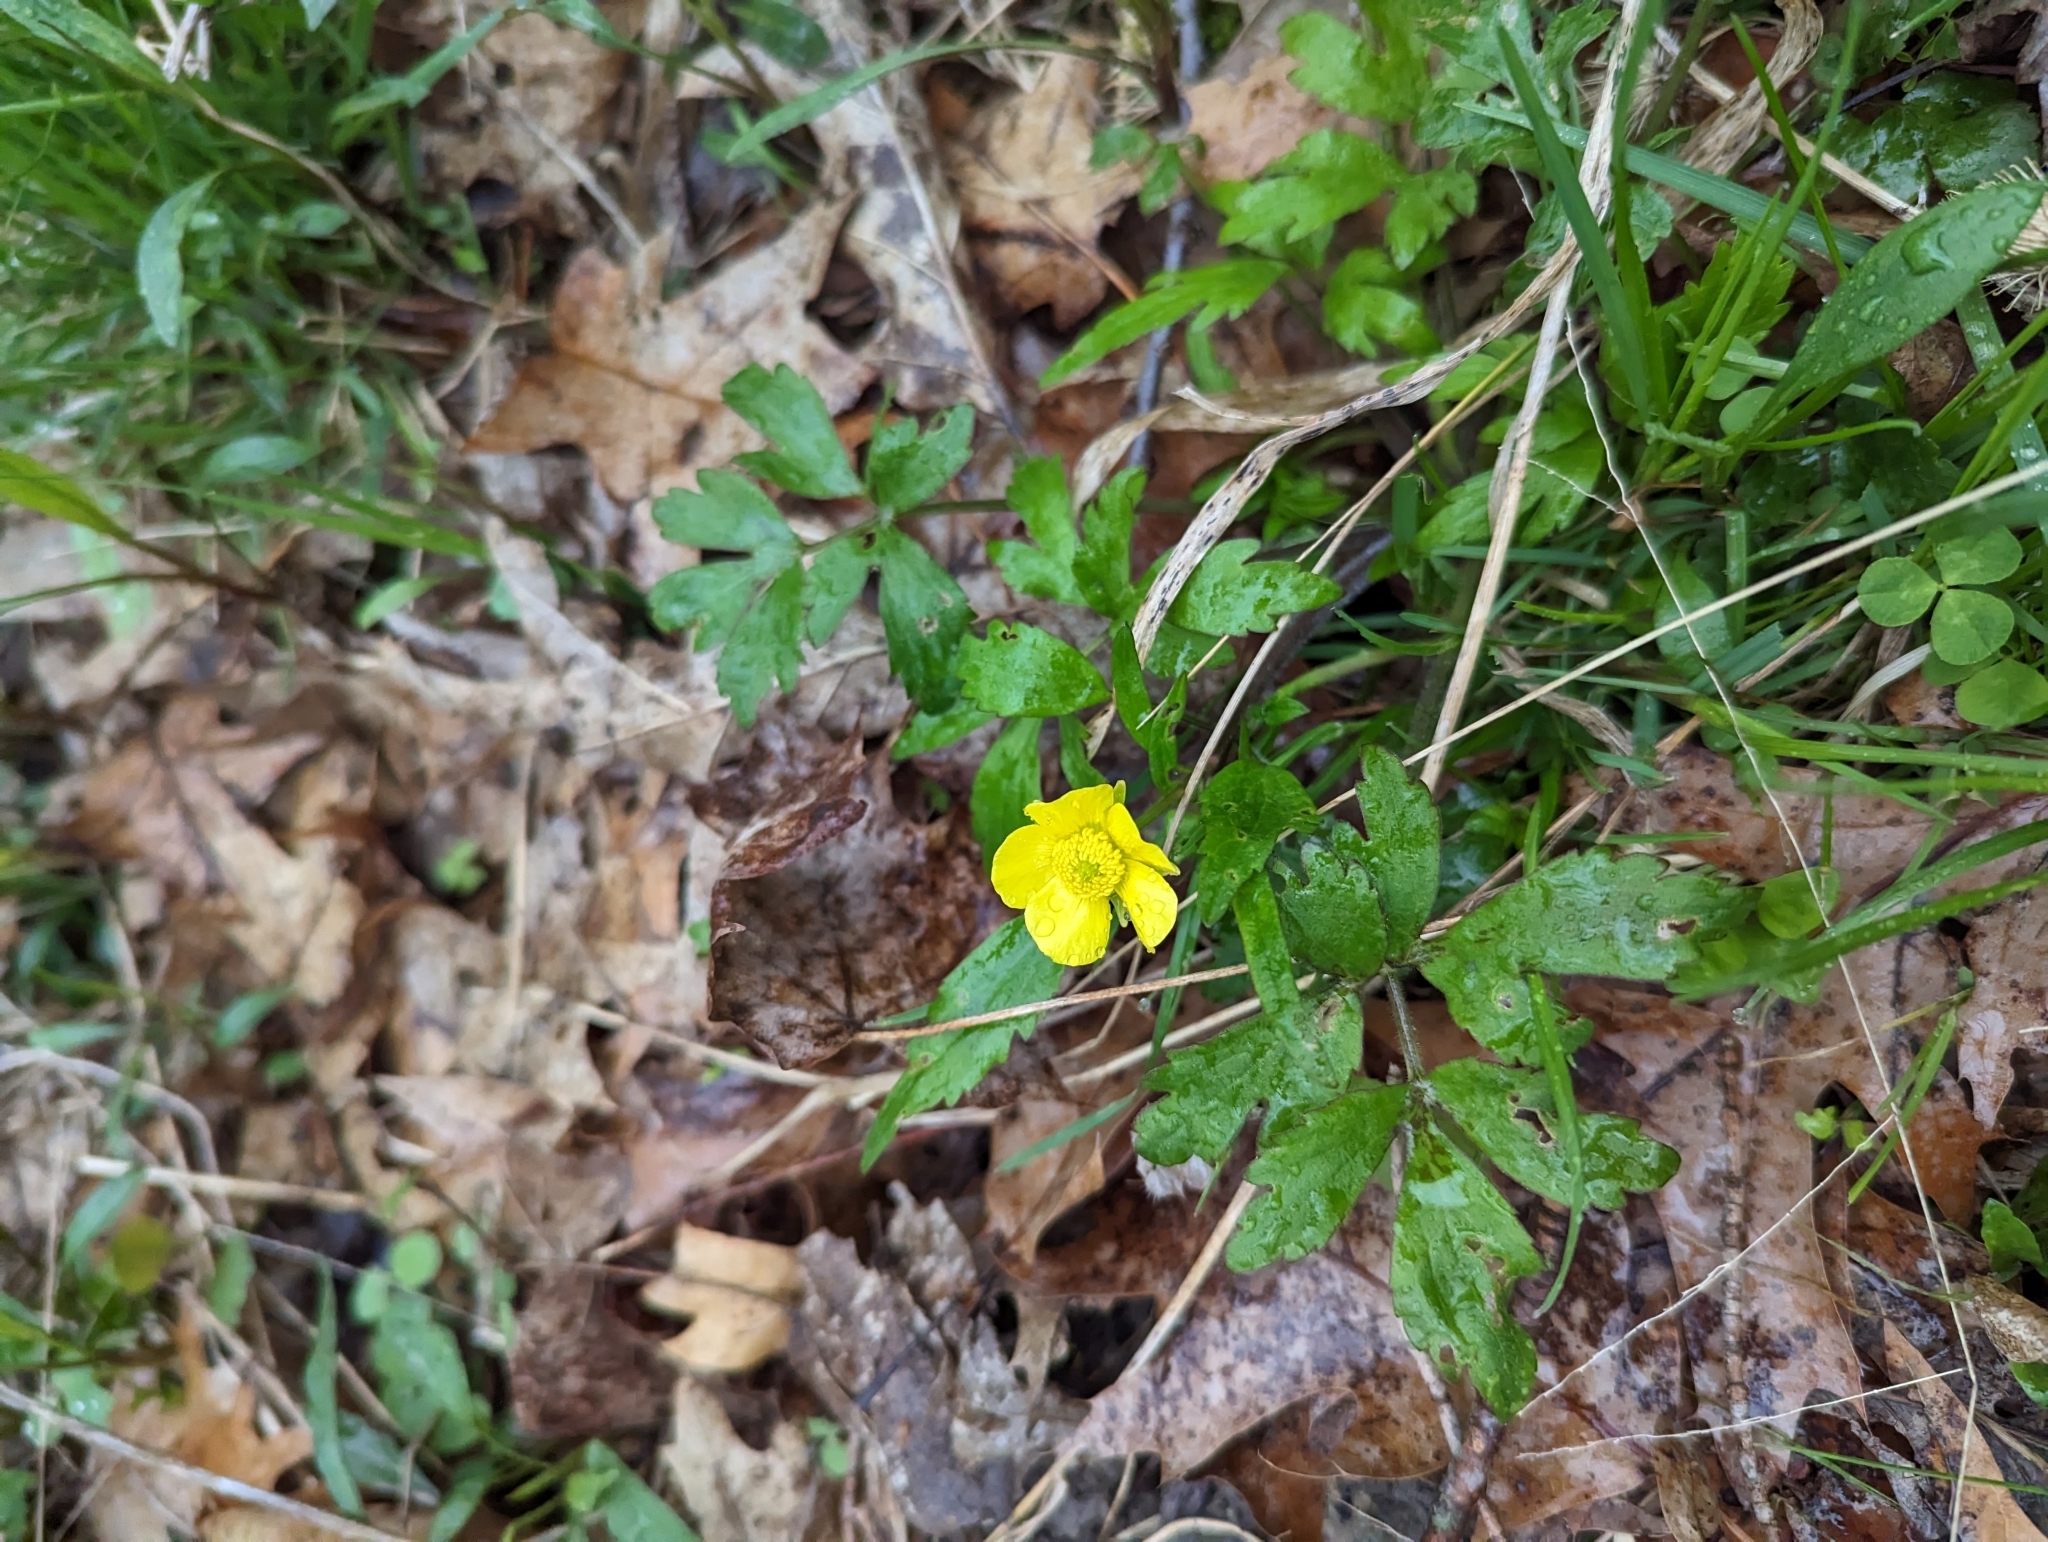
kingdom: Plantae
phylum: Tracheophyta
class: Magnoliopsida
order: Ranunculales
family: Ranunculaceae
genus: Ranunculus
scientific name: Ranunculus hispidus
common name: Bristly buttercup
